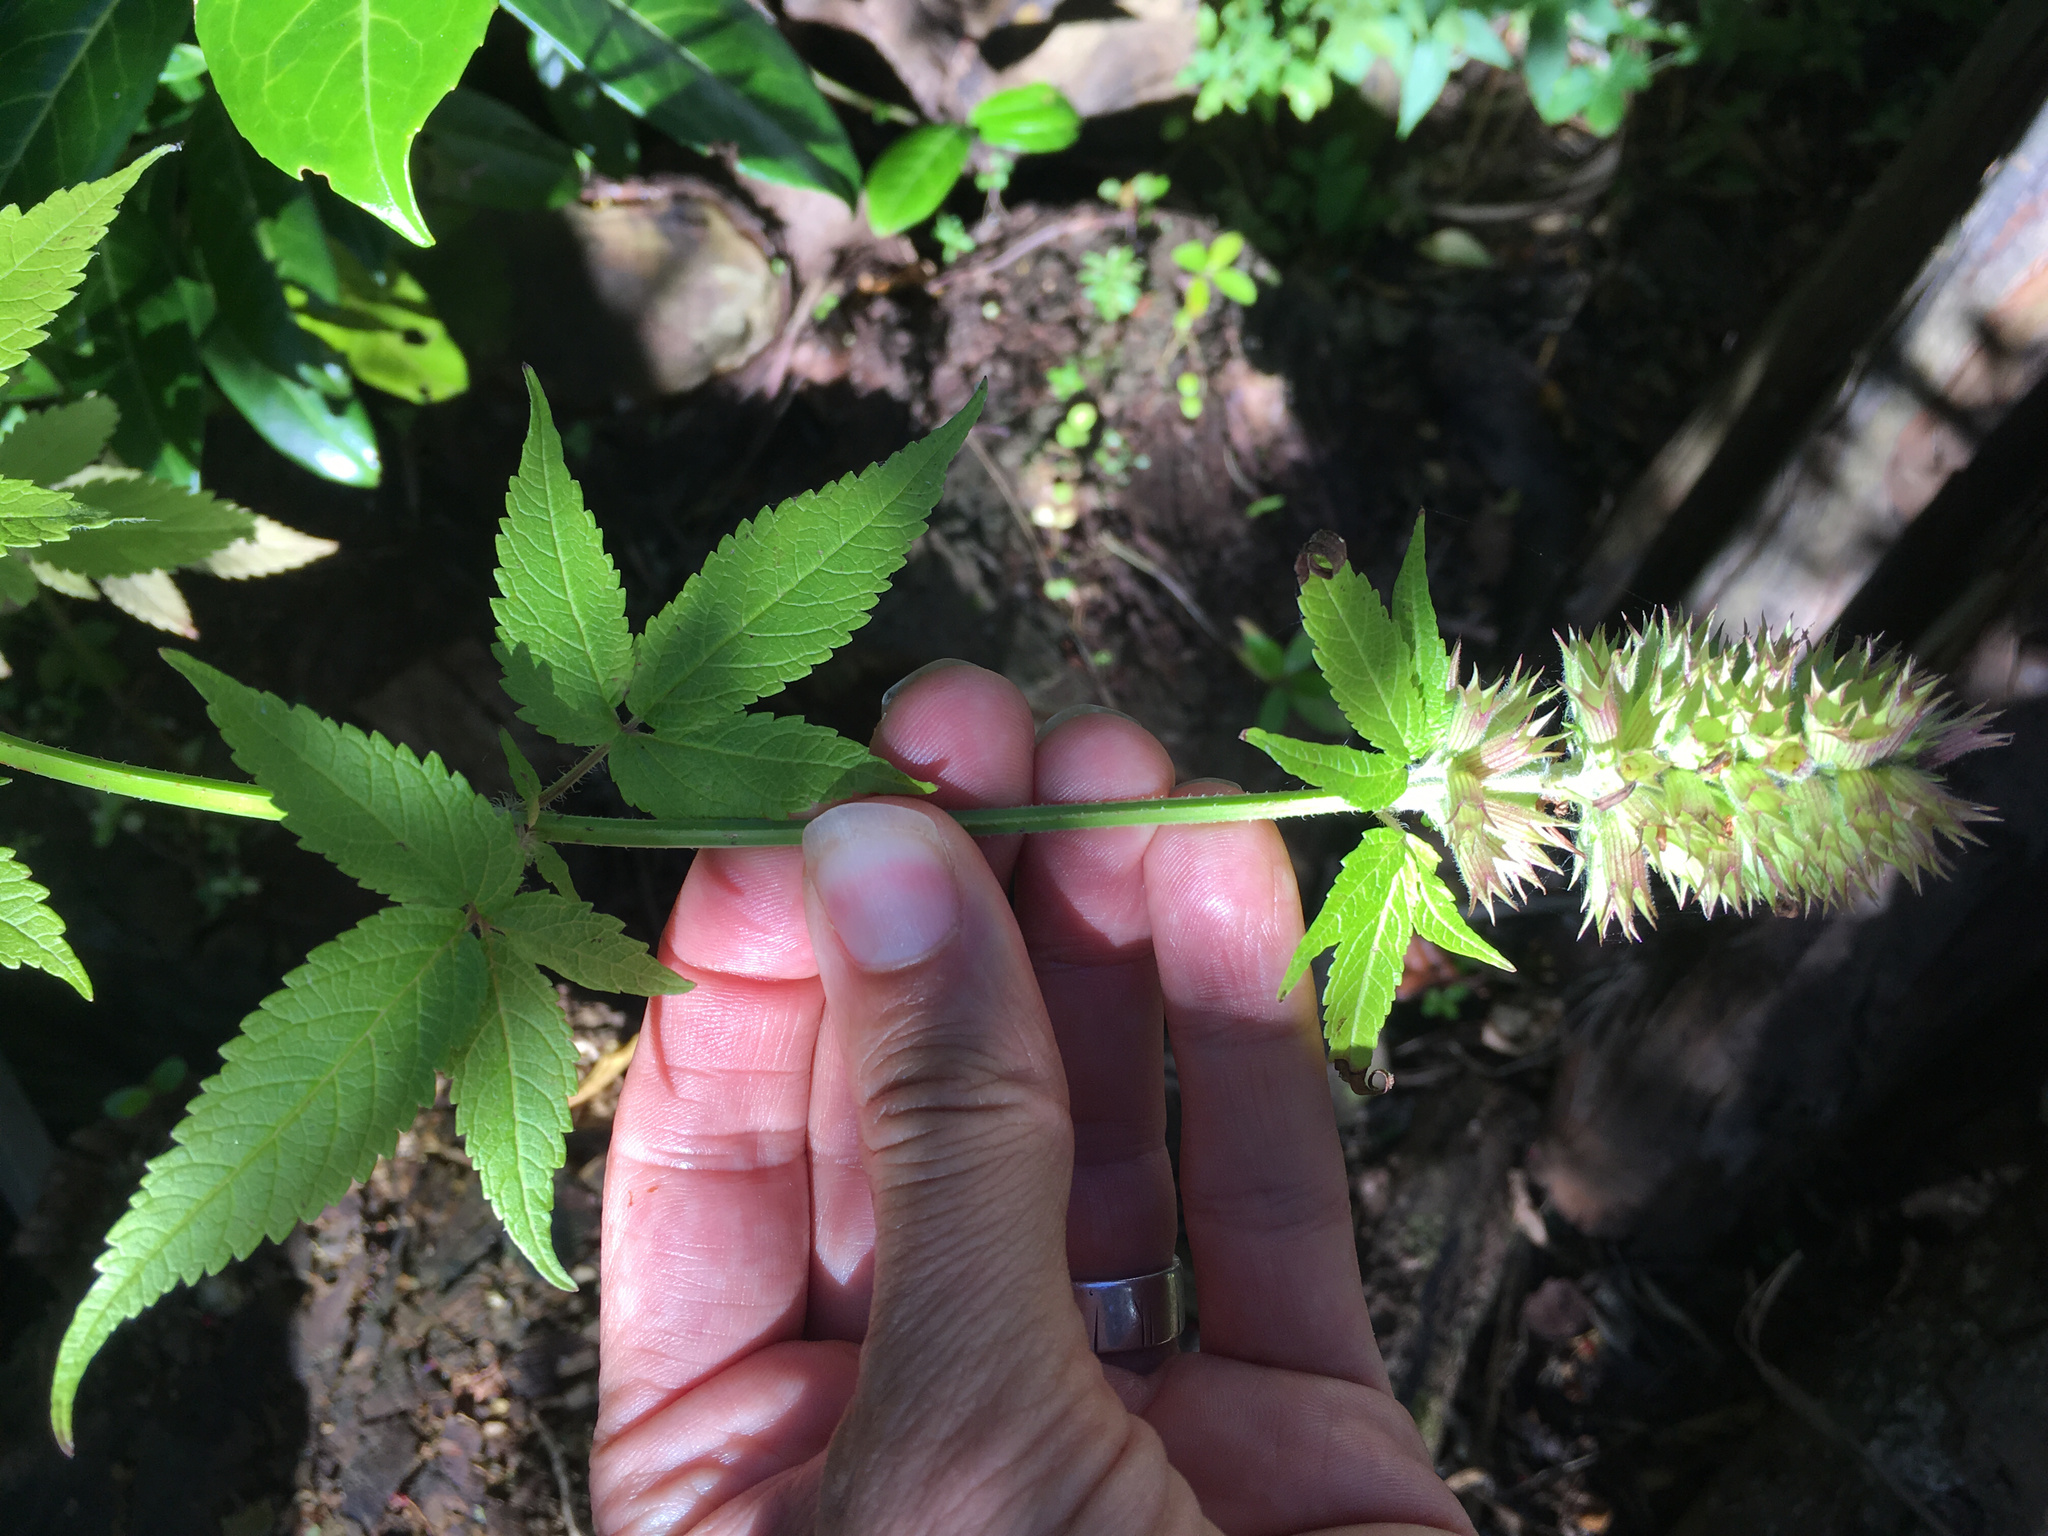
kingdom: Plantae
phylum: Tracheophyta
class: Magnoliopsida
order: Lamiales
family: Lamiaceae
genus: Cedronella
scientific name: Cedronella canariensis
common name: Canary islands balm
